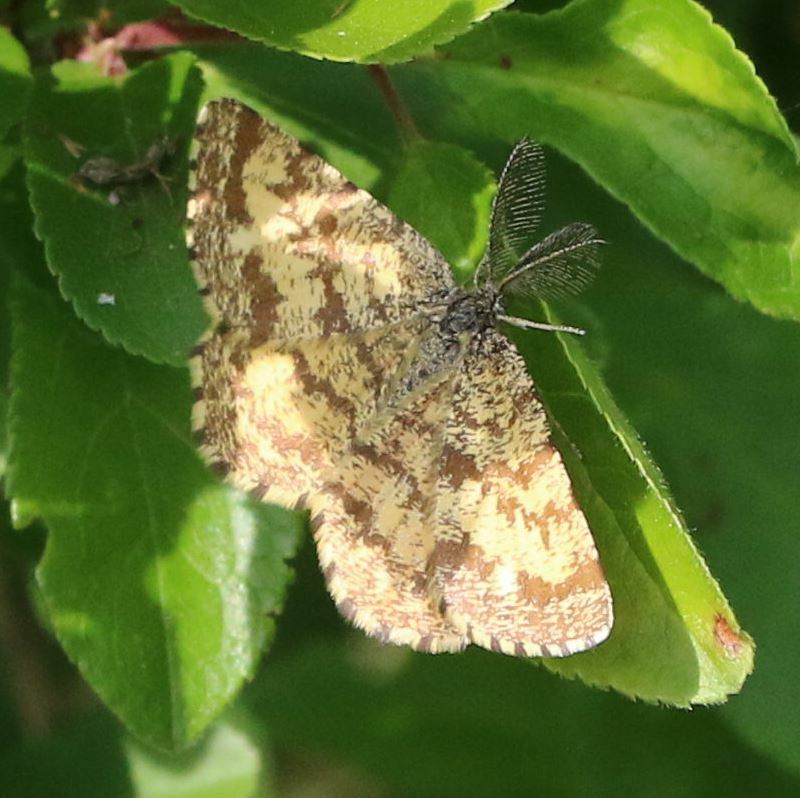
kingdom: Animalia
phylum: Arthropoda
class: Insecta
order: Lepidoptera
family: Geometridae
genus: Ematurga
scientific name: Ematurga atomaria
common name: Common heath
